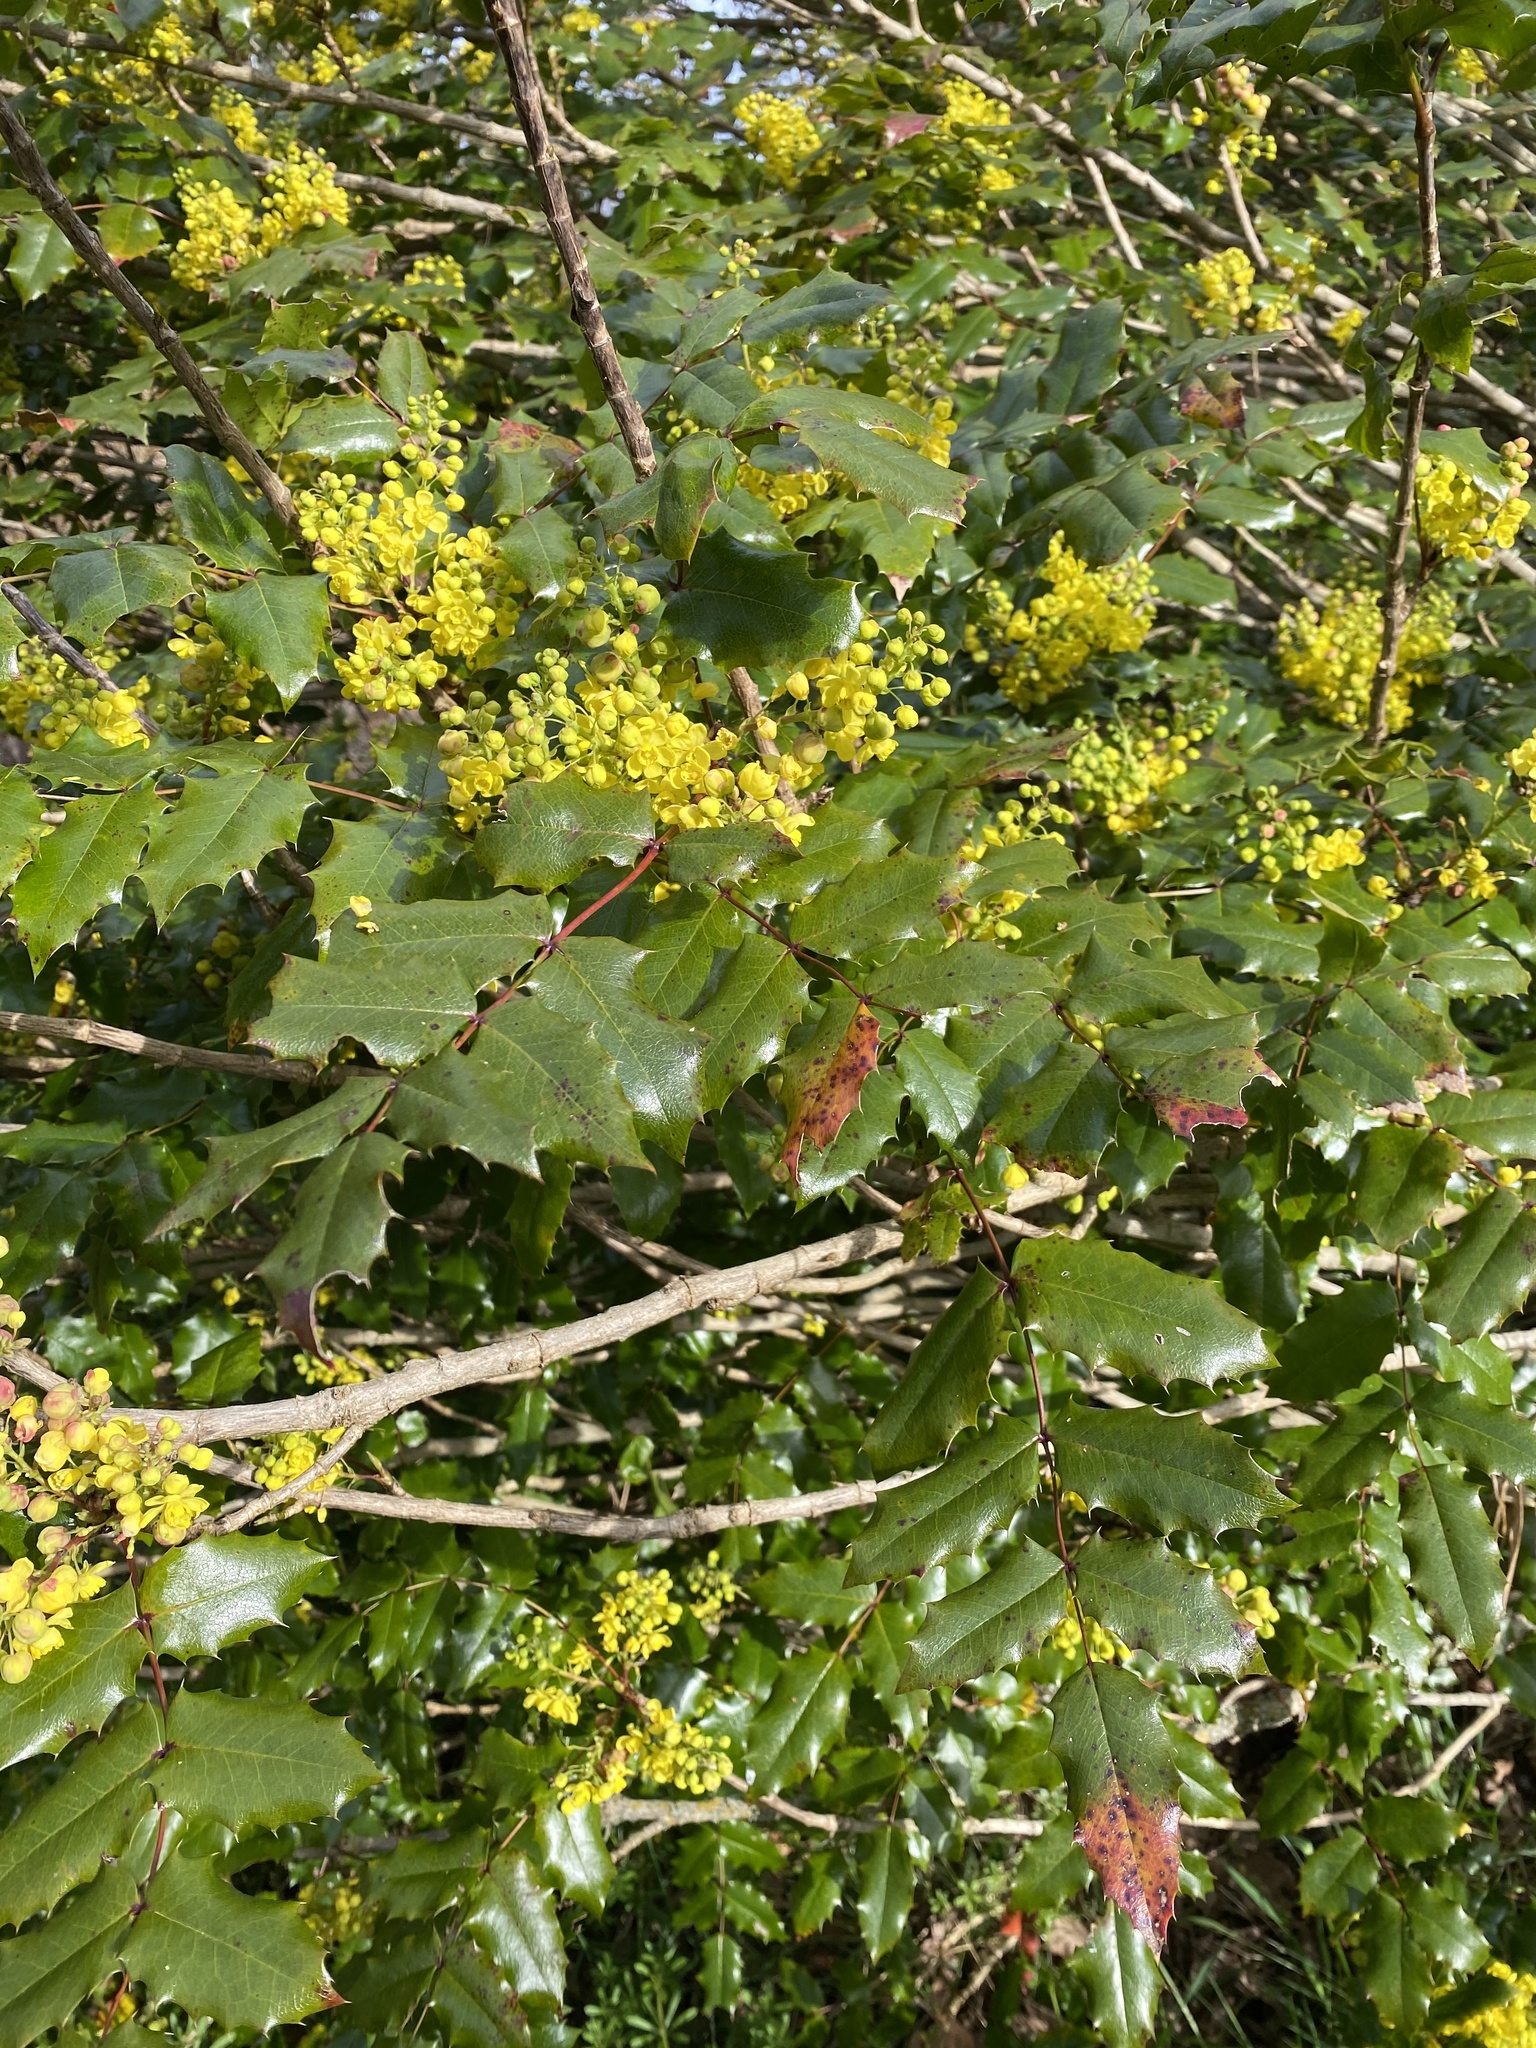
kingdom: Plantae
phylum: Tracheophyta
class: Magnoliopsida
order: Ranunculales
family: Berberidaceae
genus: Mahonia
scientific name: Mahonia aquifolium
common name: Oregon-grape
